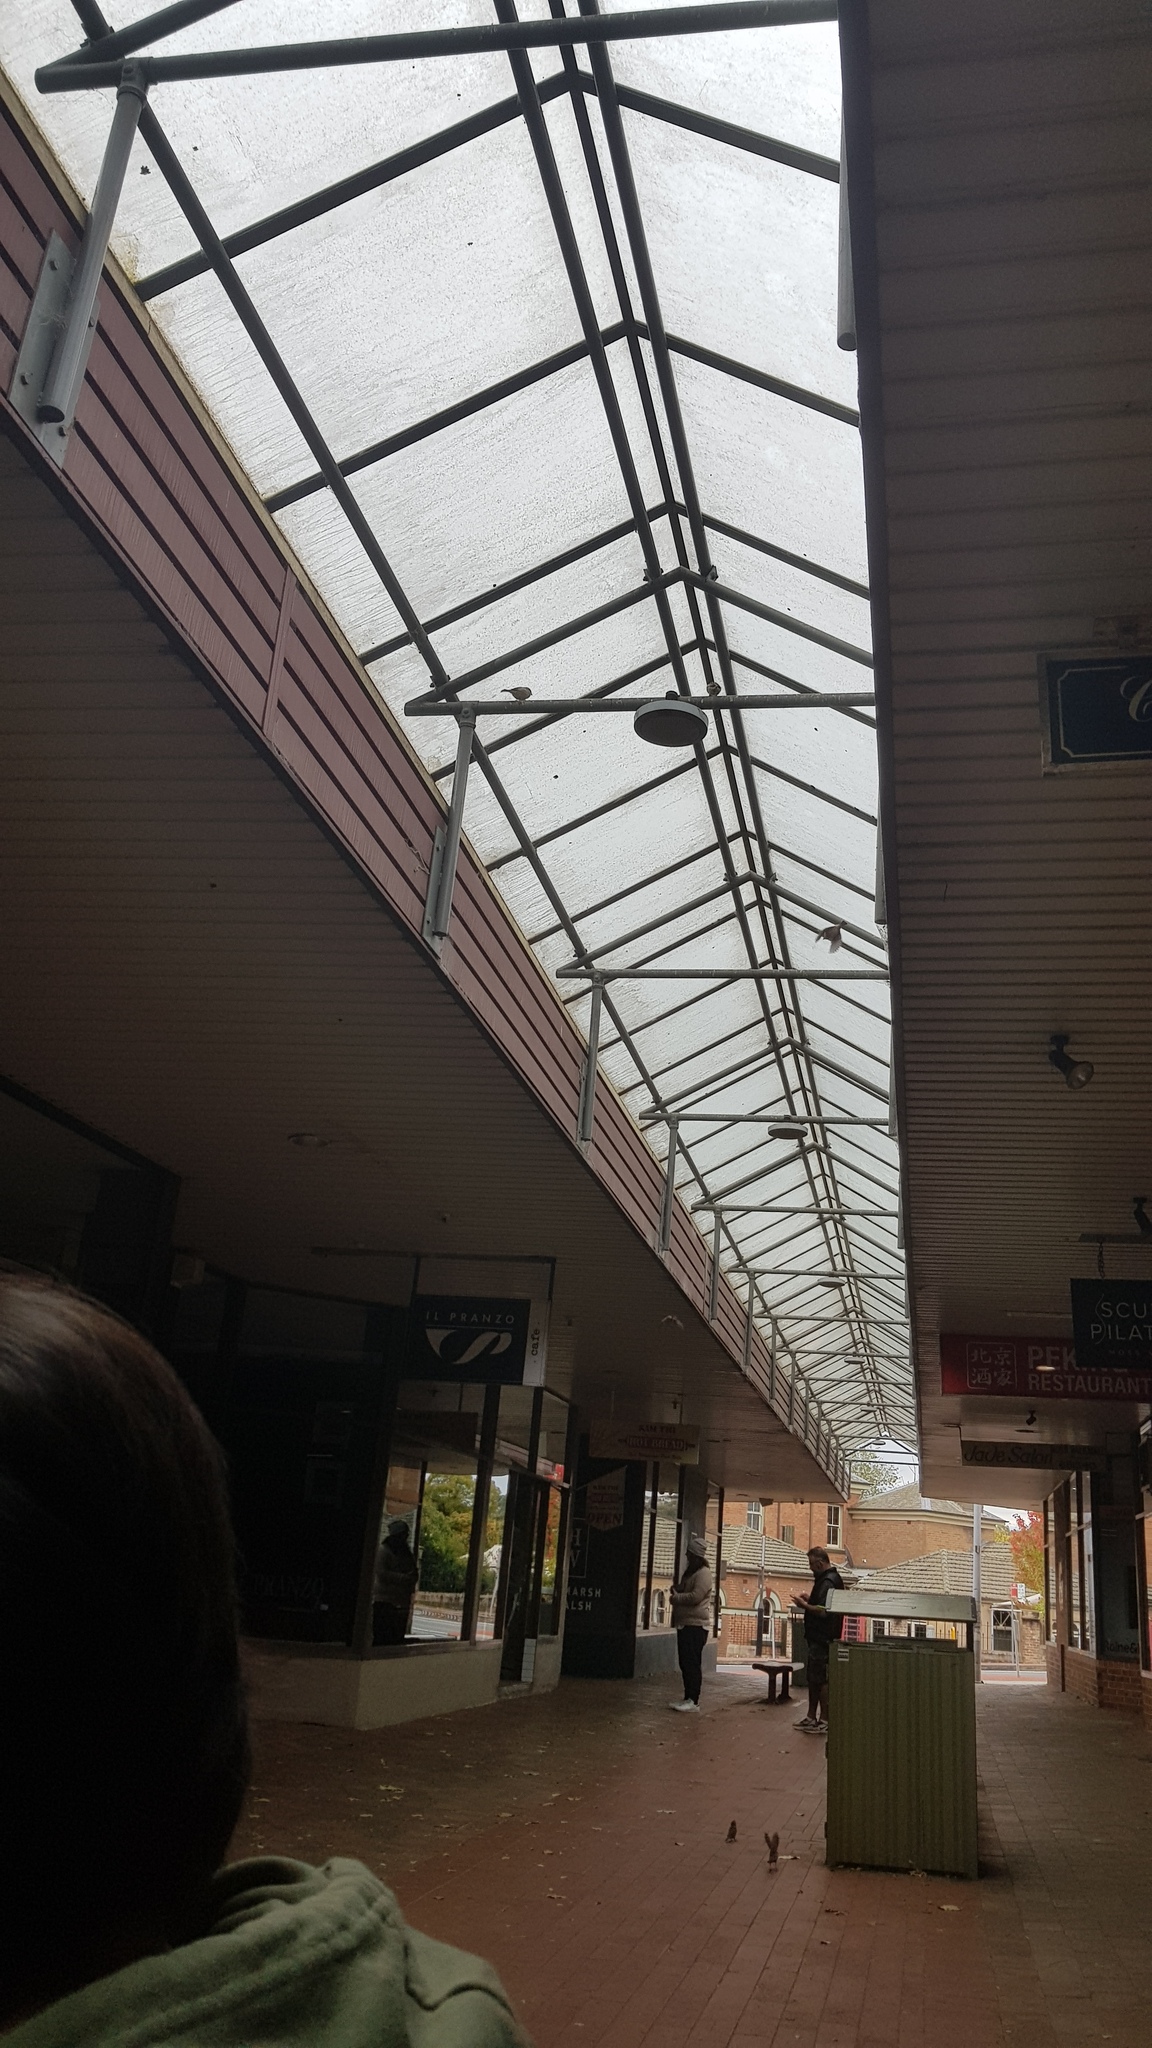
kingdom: Animalia
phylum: Chordata
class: Aves
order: Passeriformes
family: Passeridae
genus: Passer
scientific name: Passer domesticus
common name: House sparrow
